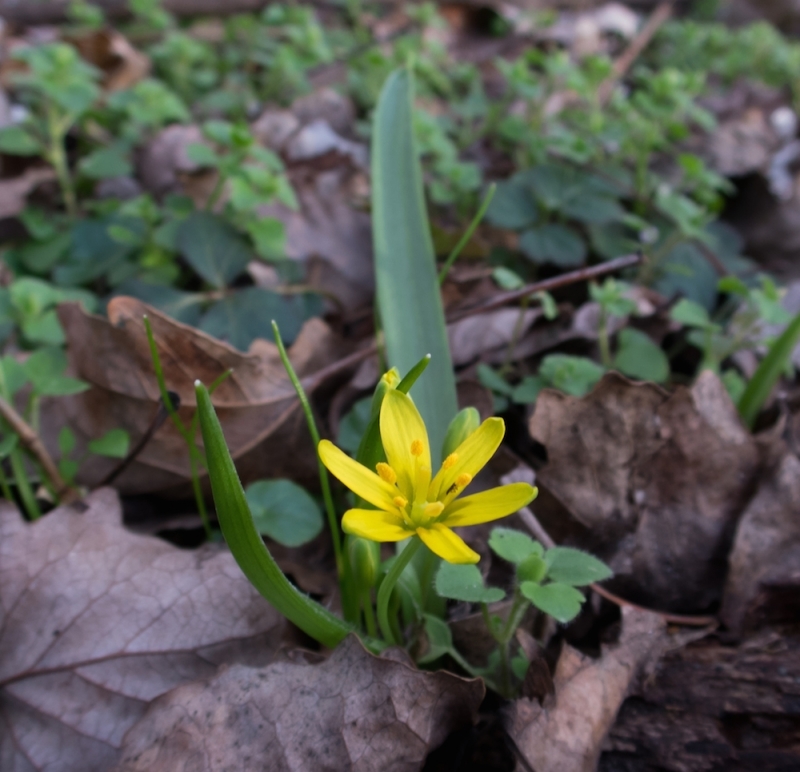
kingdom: Plantae
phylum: Tracheophyta
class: Liliopsida
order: Liliales
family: Liliaceae
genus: Gagea
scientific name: Gagea lutea
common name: Yellow star-of-bethlehem
